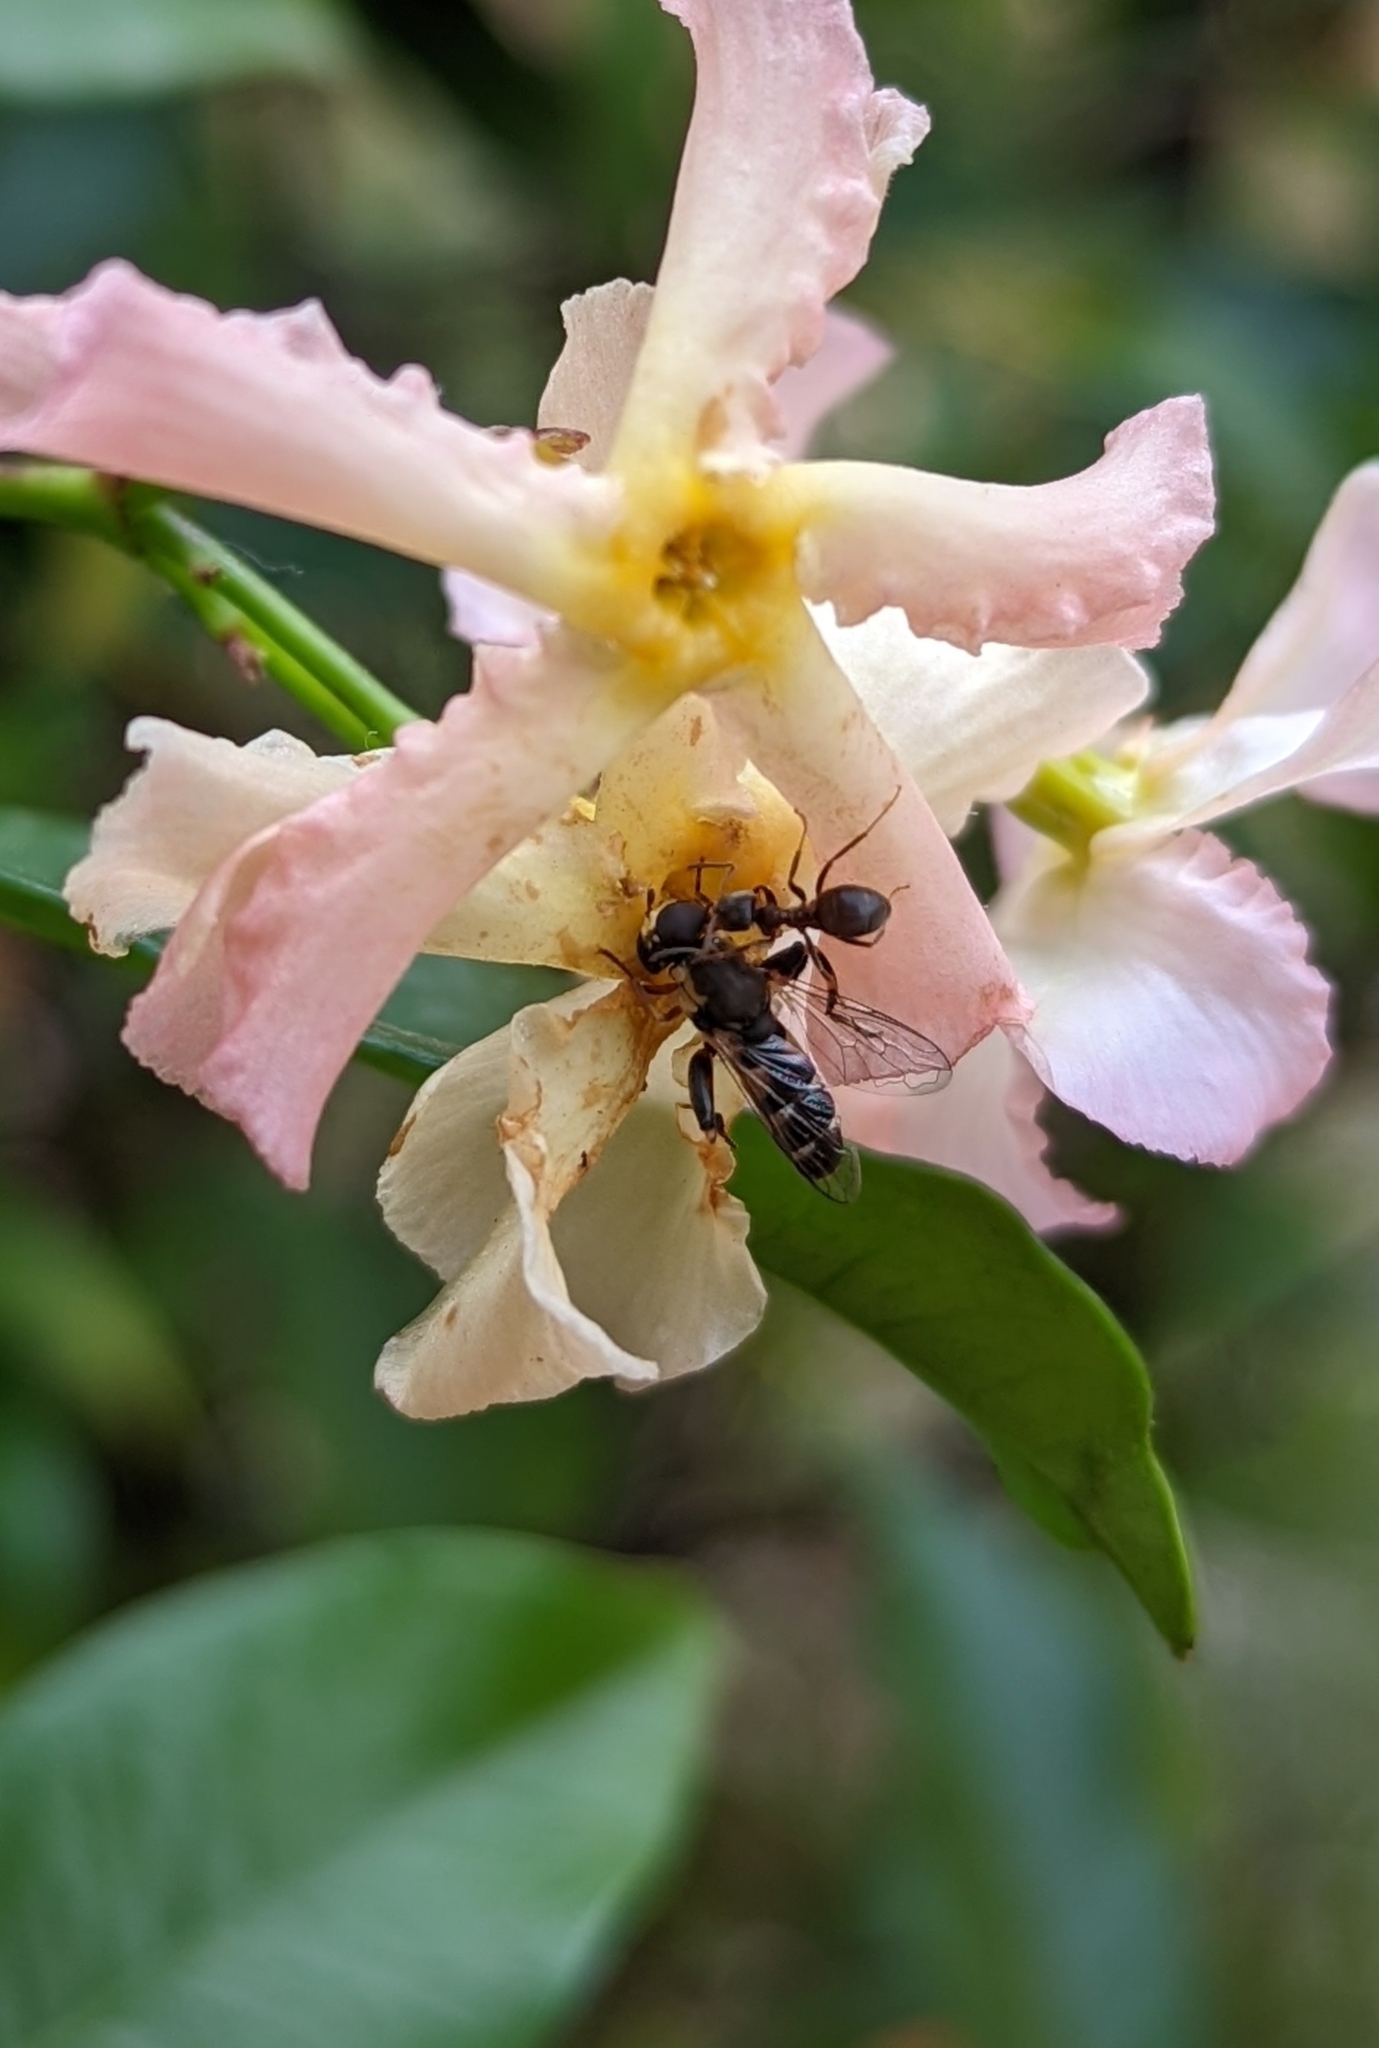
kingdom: Animalia
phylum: Arthropoda
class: Insecta
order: Diptera
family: Syrphidae
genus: Syritta
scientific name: Syritta pipiens
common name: Hover fly
